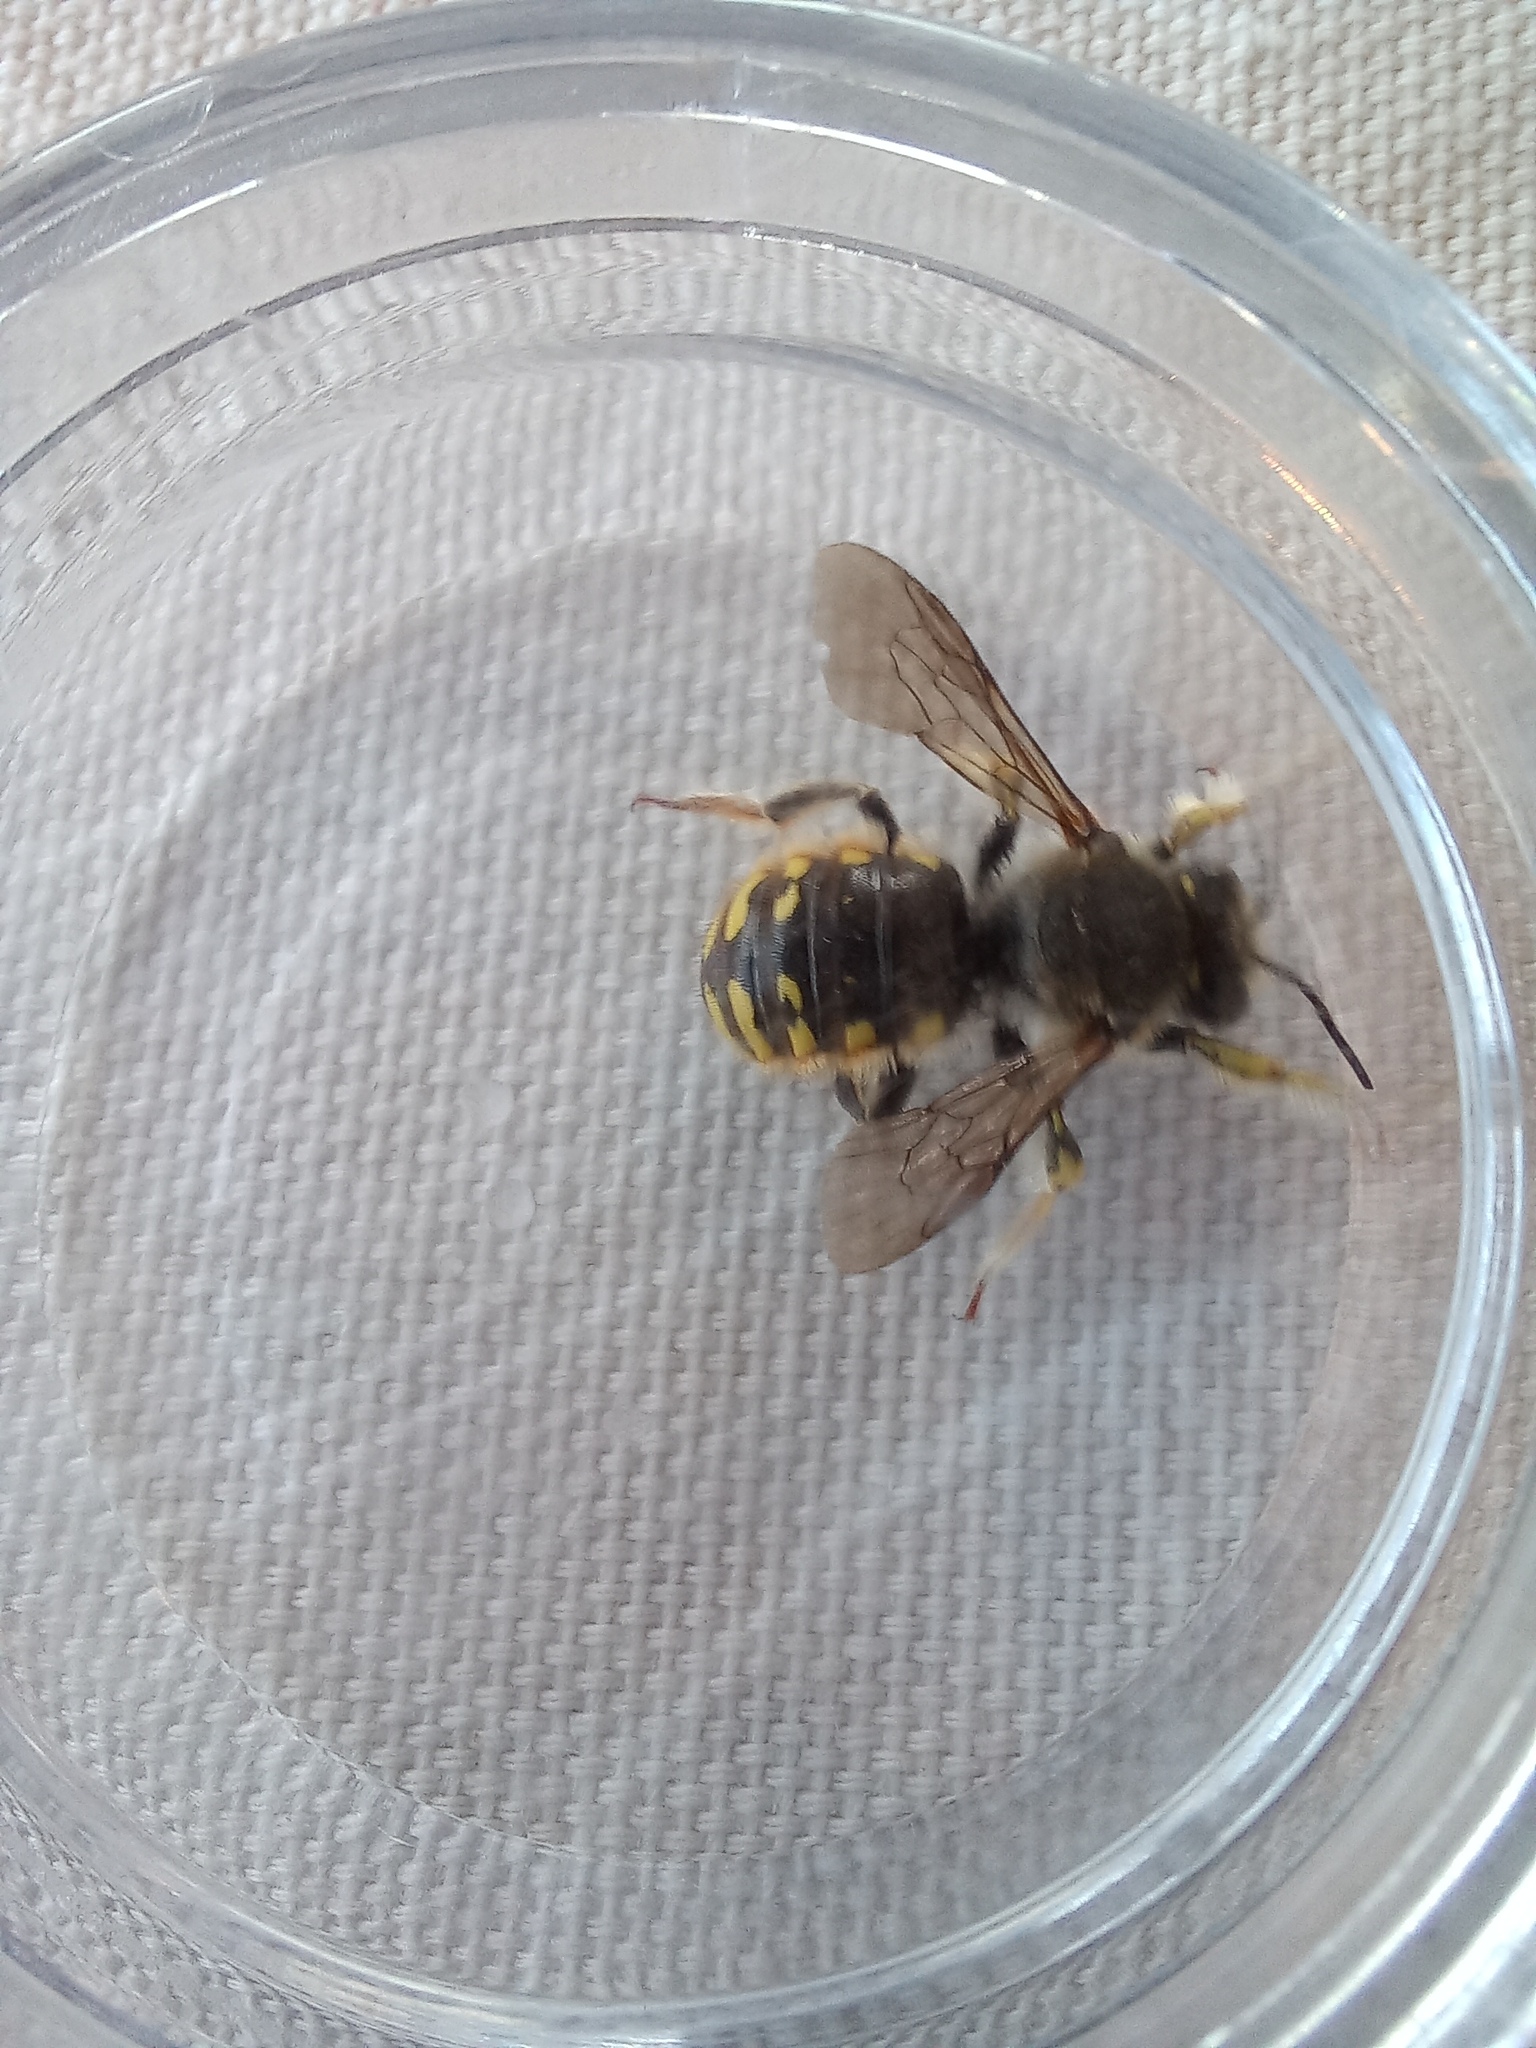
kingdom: Animalia
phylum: Arthropoda
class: Insecta
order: Hymenoptera
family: Megachilidae
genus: Anthidium
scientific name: Anthidium manicatum
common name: Wool carder bee
